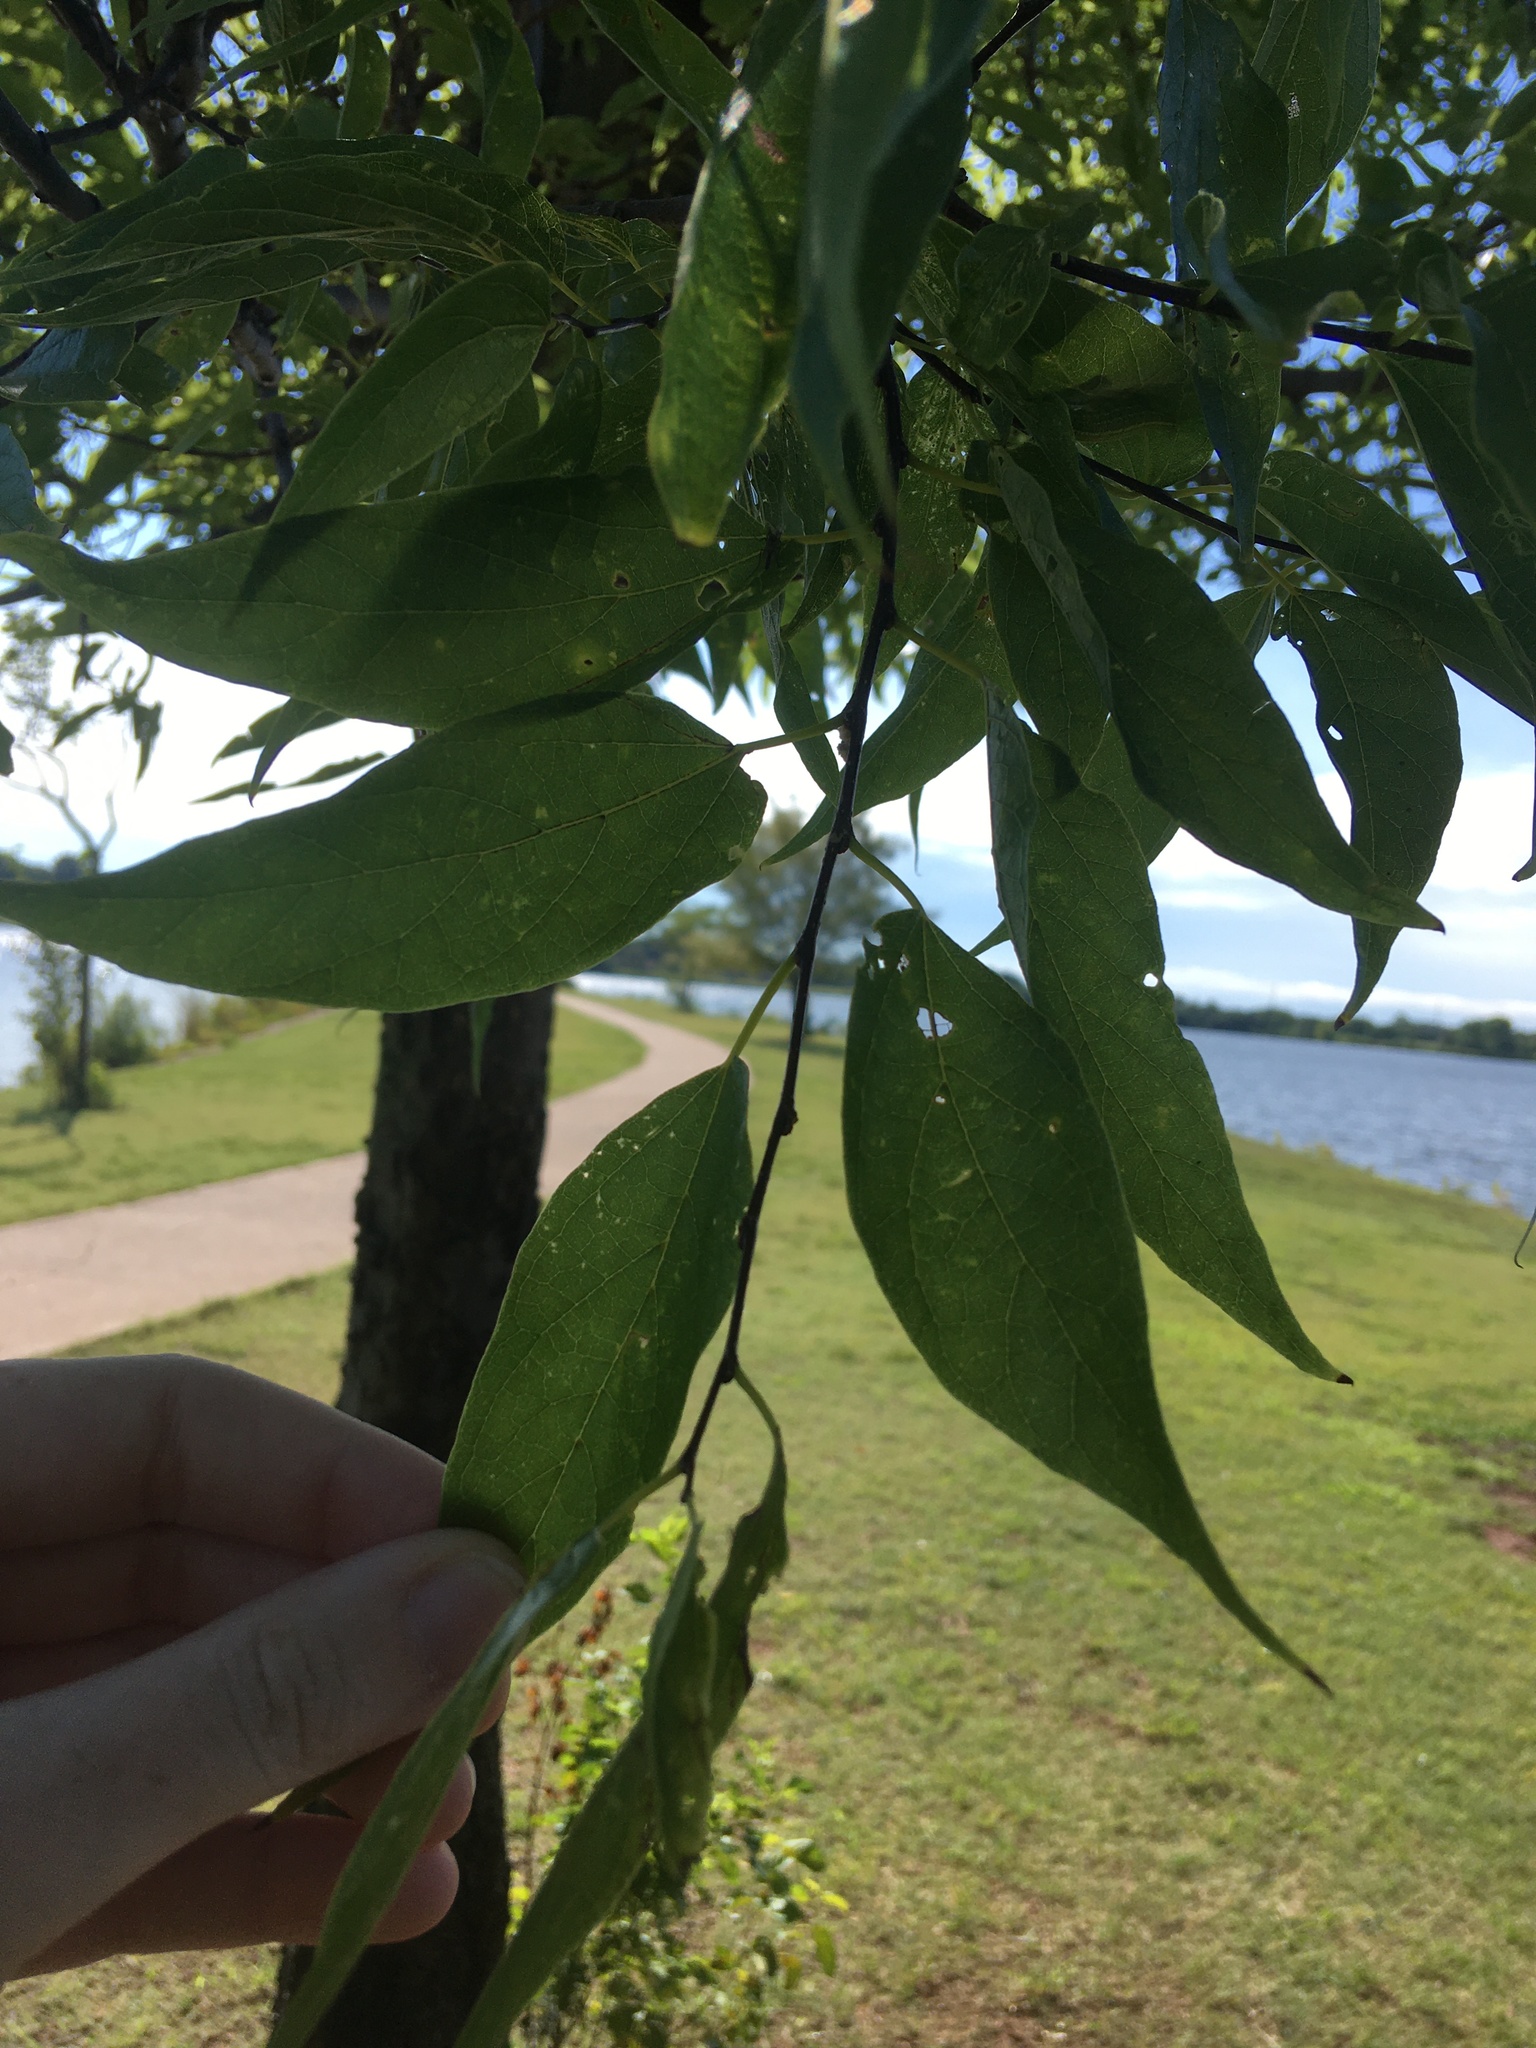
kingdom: Plantae
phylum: Tracheophyta
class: Magnoliopsida
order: Rosales
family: Cannabaceae
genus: Celtis
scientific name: Celtis laevigata
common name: Sugarberry
